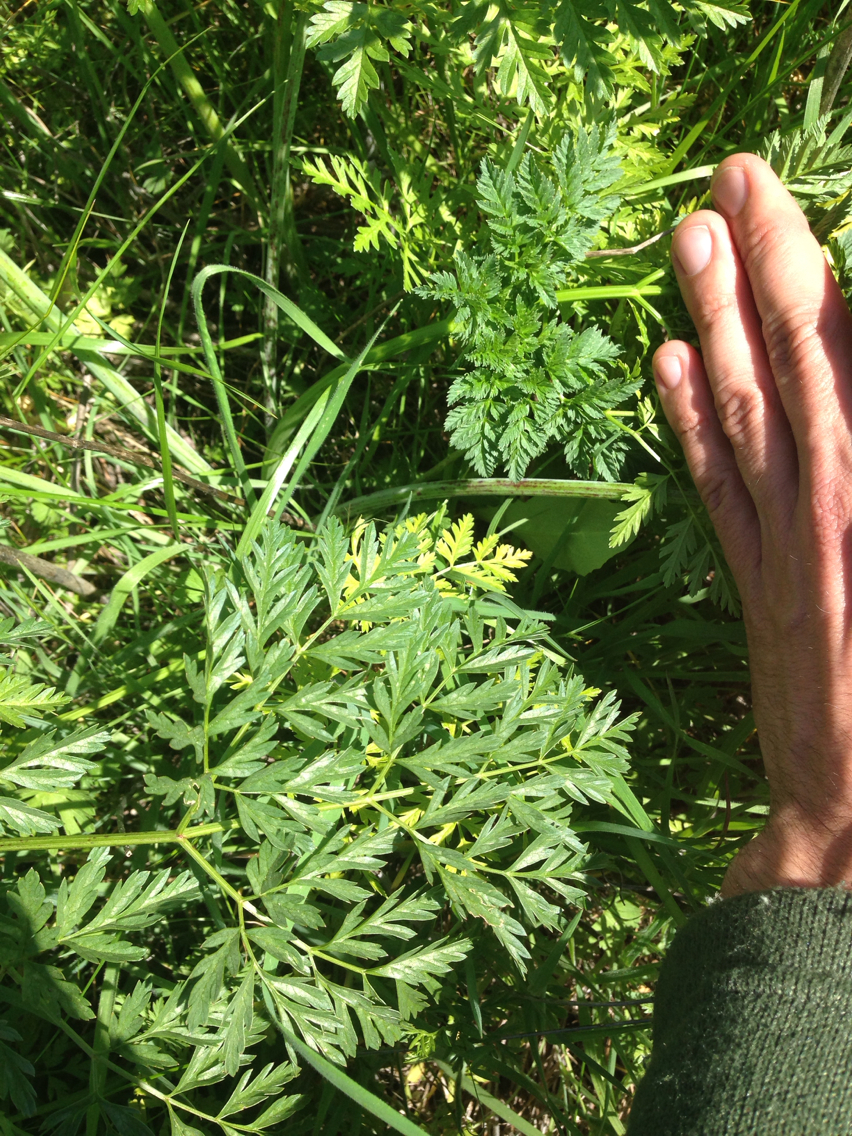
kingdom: Plantae
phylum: Tracheophyta
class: Magnoliopsida
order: Apiales
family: Apiaceae
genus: Conium
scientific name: Conium maculatum
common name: Hemlock
